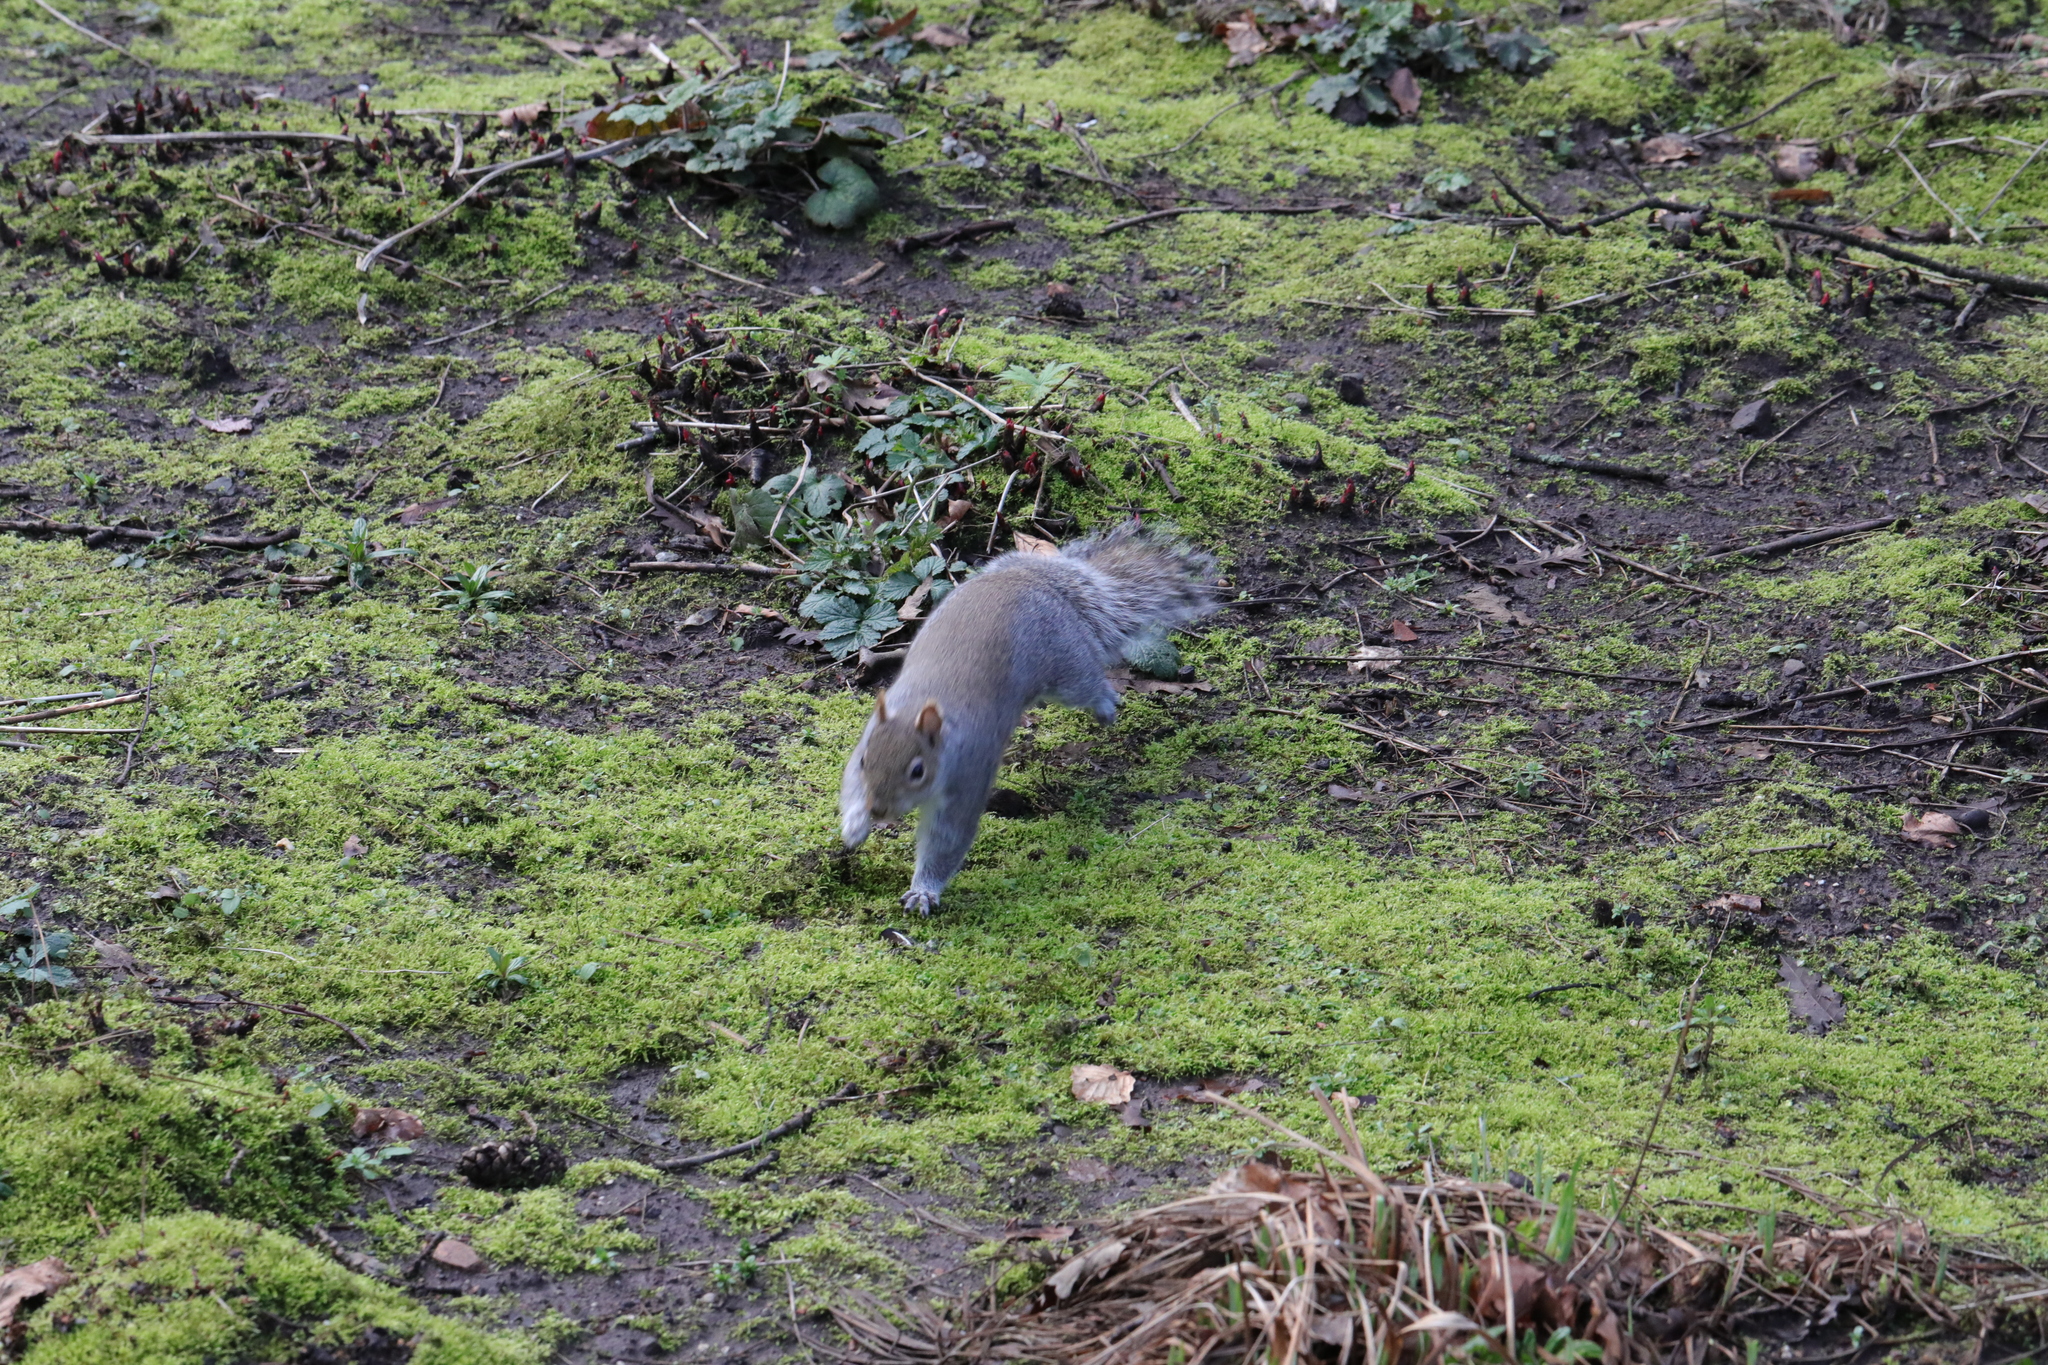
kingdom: Animalia
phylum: Chordata
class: Mammalia
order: Rodentia
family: Sciuridae
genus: Sciurus
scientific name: Sciurus carolinensis
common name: Eastern gray squirrel
